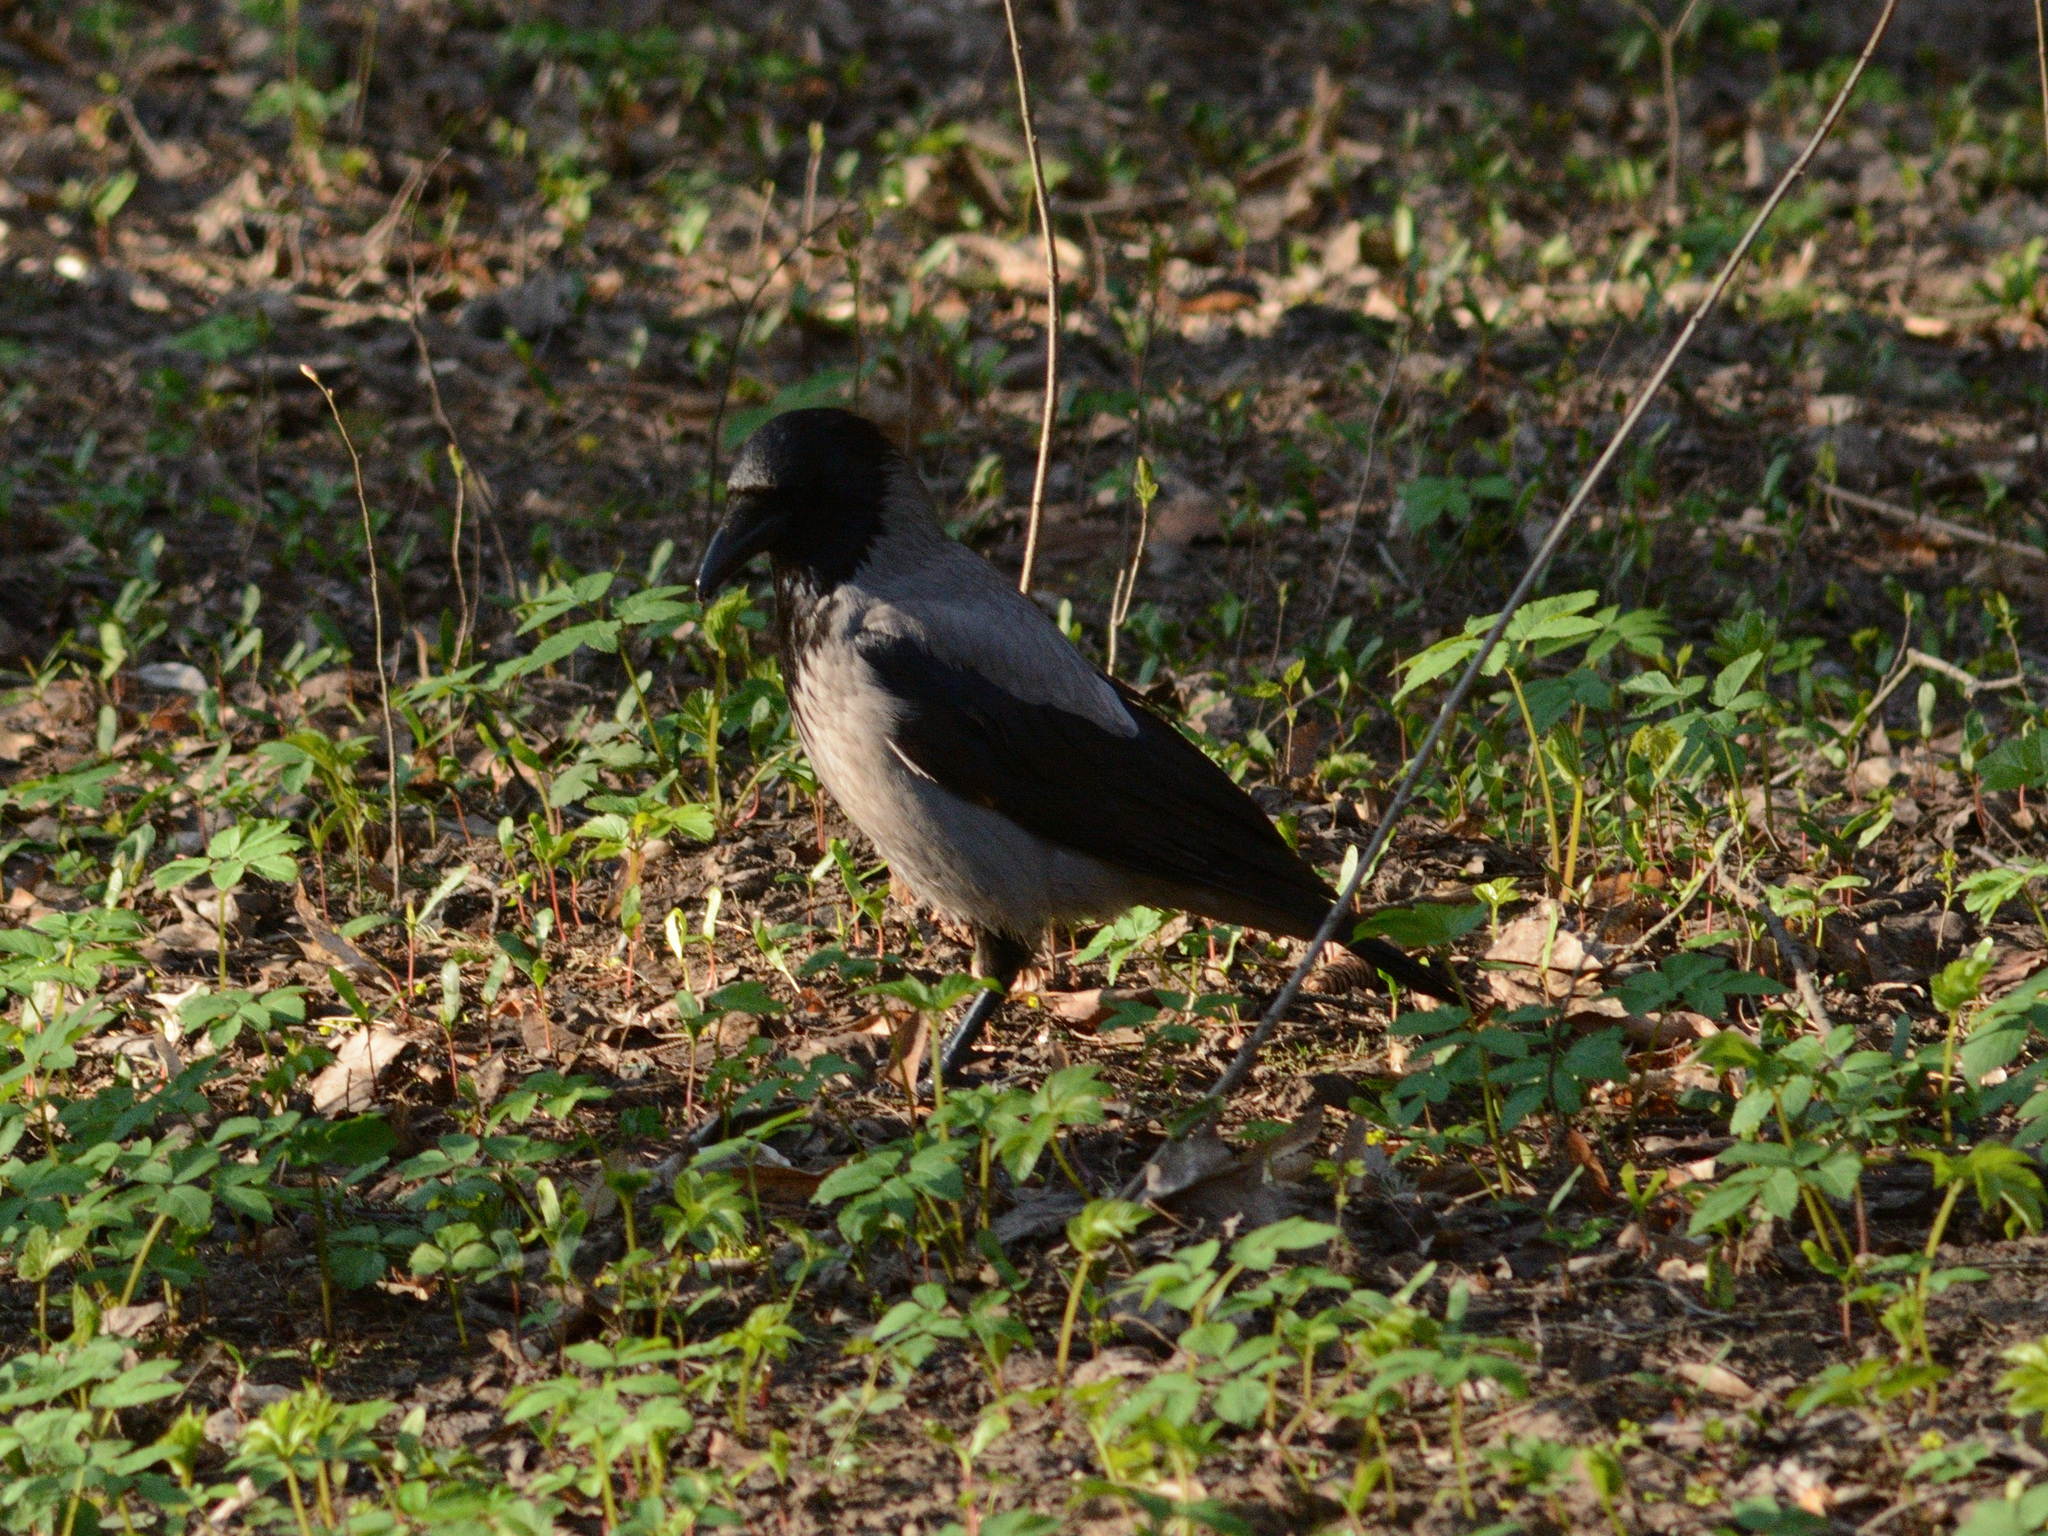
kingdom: Animalia
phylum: Chordata
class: Aves
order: Passeriformes
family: Corvidae
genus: Corvus
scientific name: Corvus cornix
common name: Hooded crow
